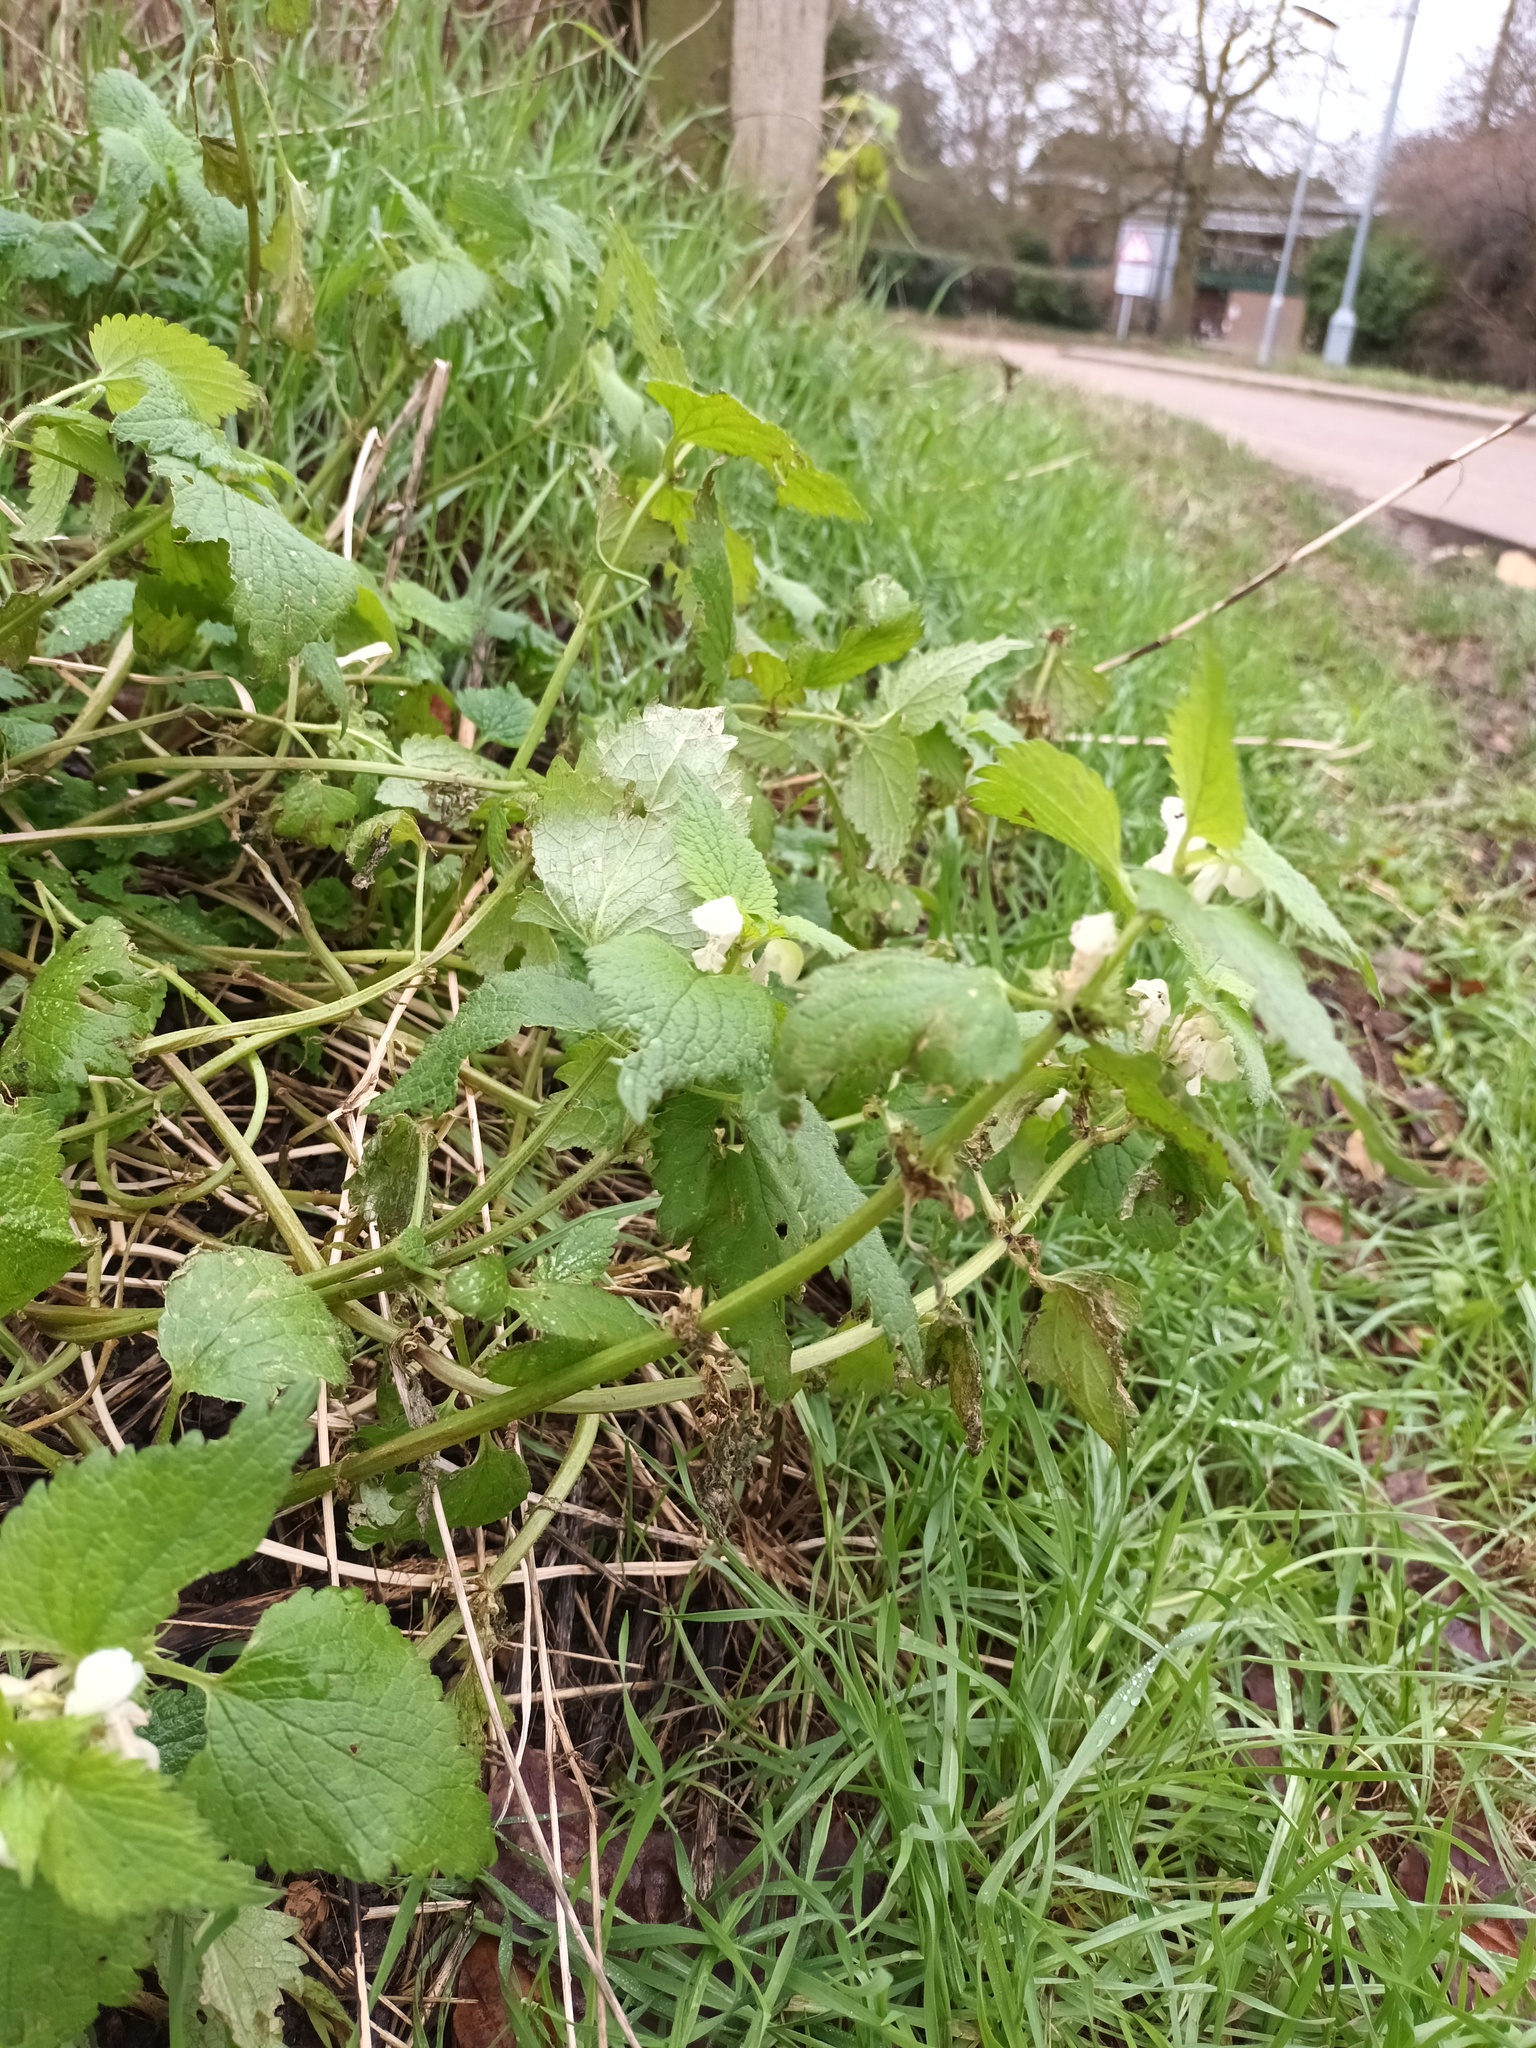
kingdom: Plantae
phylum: Tracheophyta
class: Magnoliopsida
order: Lamiales
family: Lamiaceae
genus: Lamium
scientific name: Lamium album
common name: White dead-nettle
